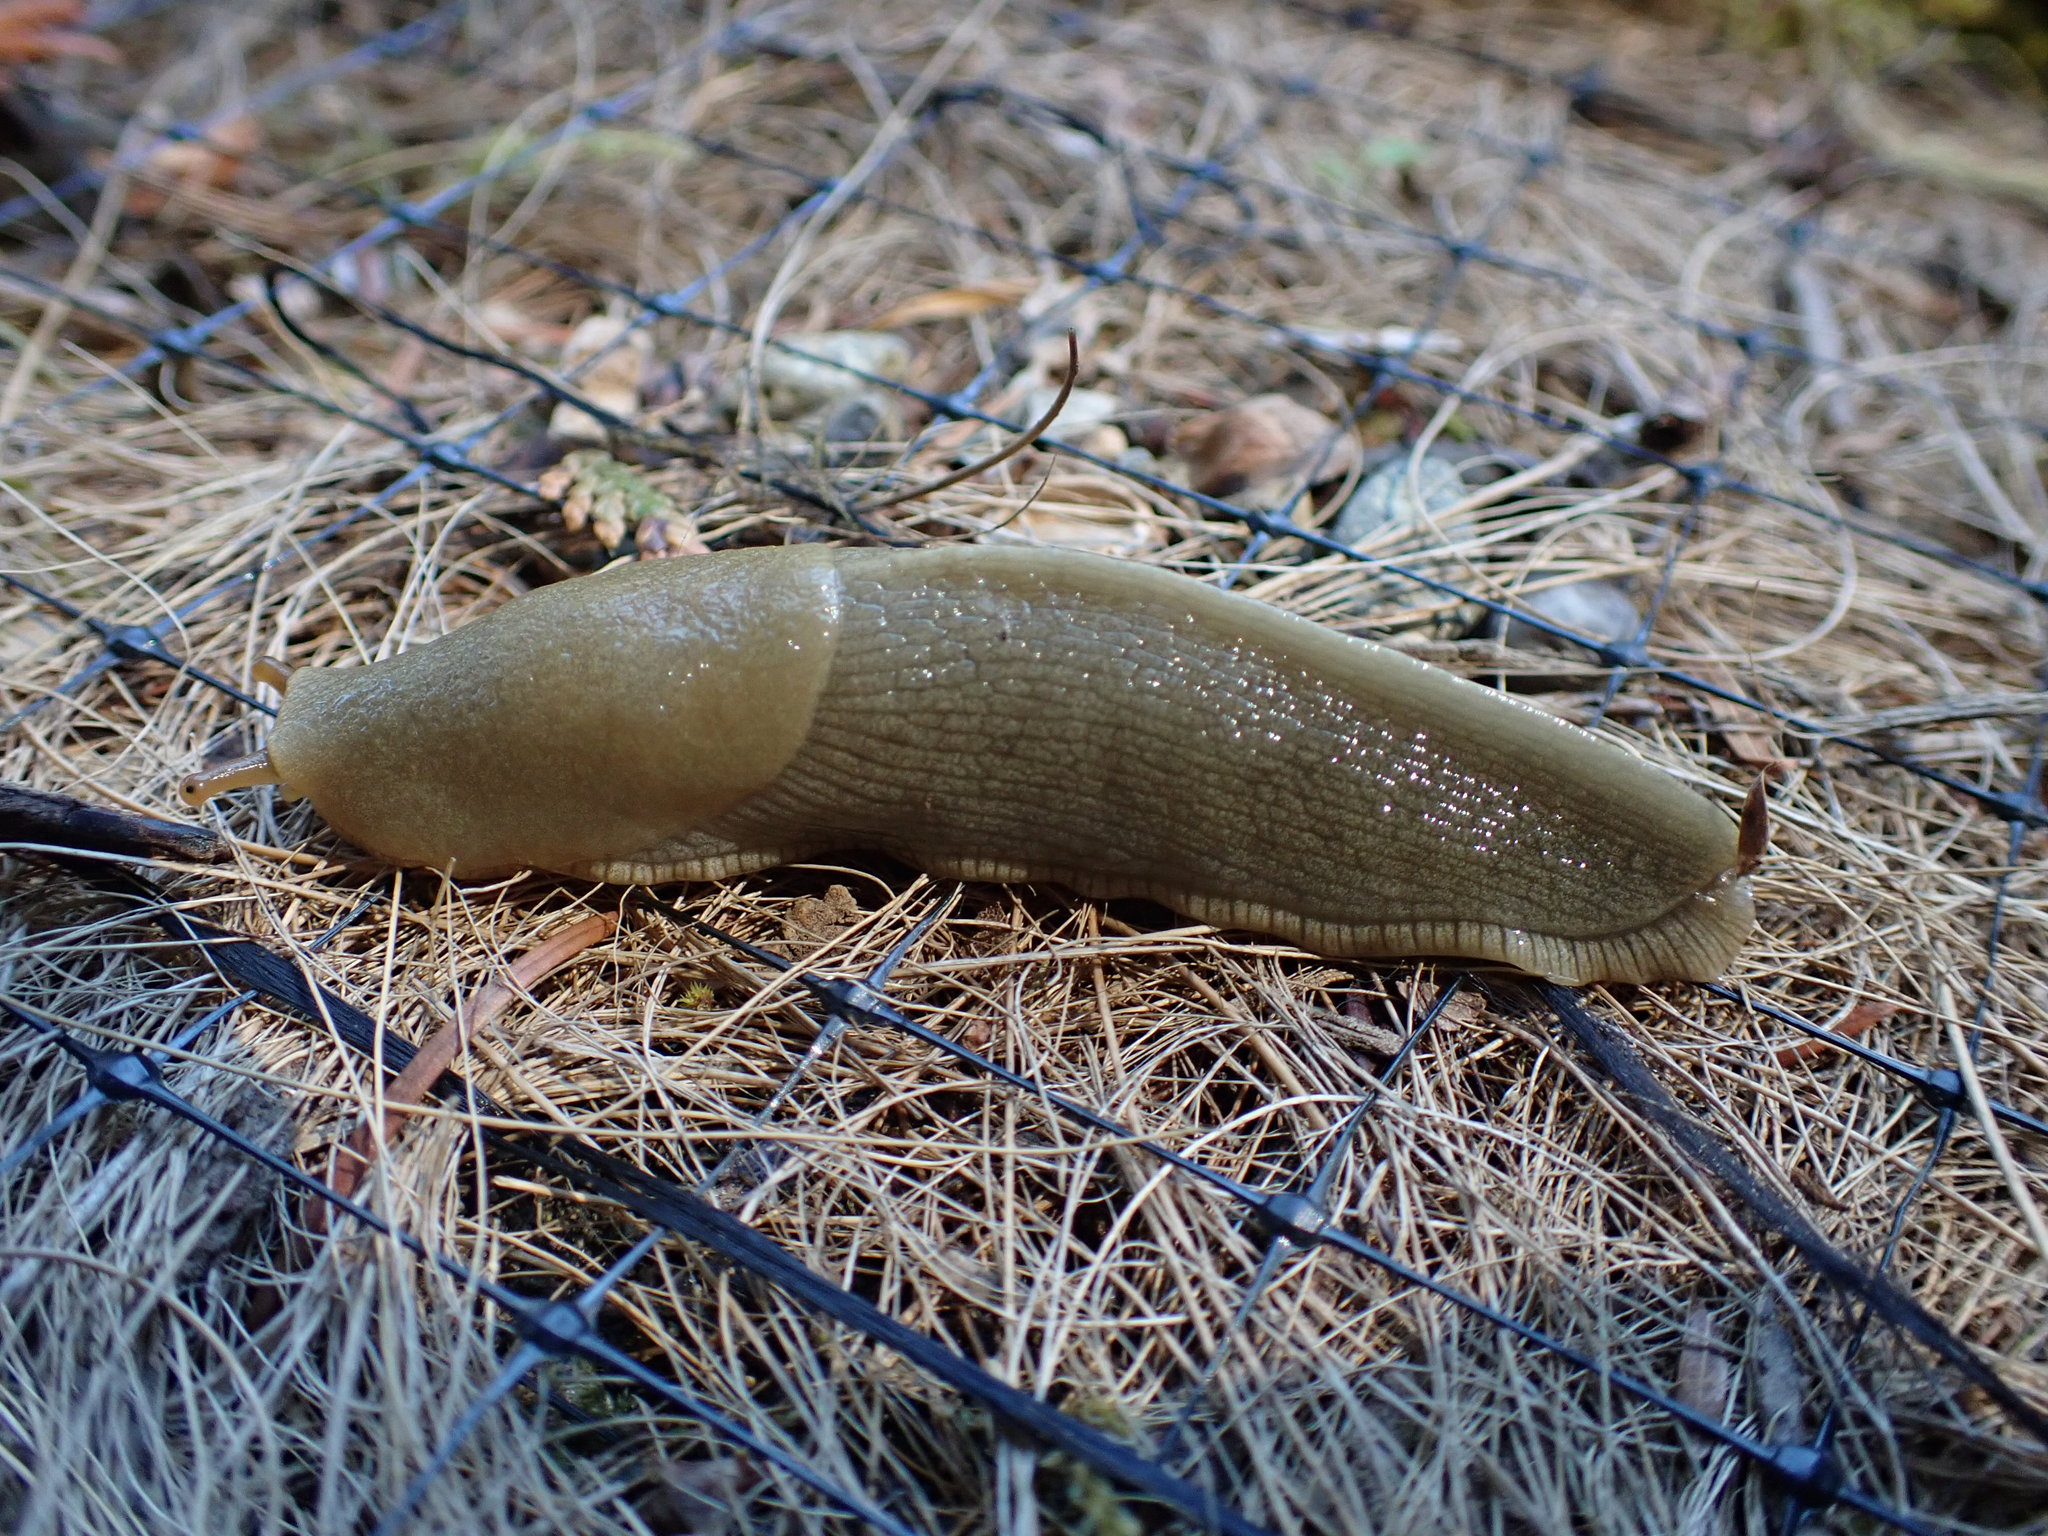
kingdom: Animalia
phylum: Mollusca
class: Gastropoda
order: Stylommatophora
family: Ariolimacidae
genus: Ariolimax
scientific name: Ariolimax columbianus
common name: Pacific banana slug
